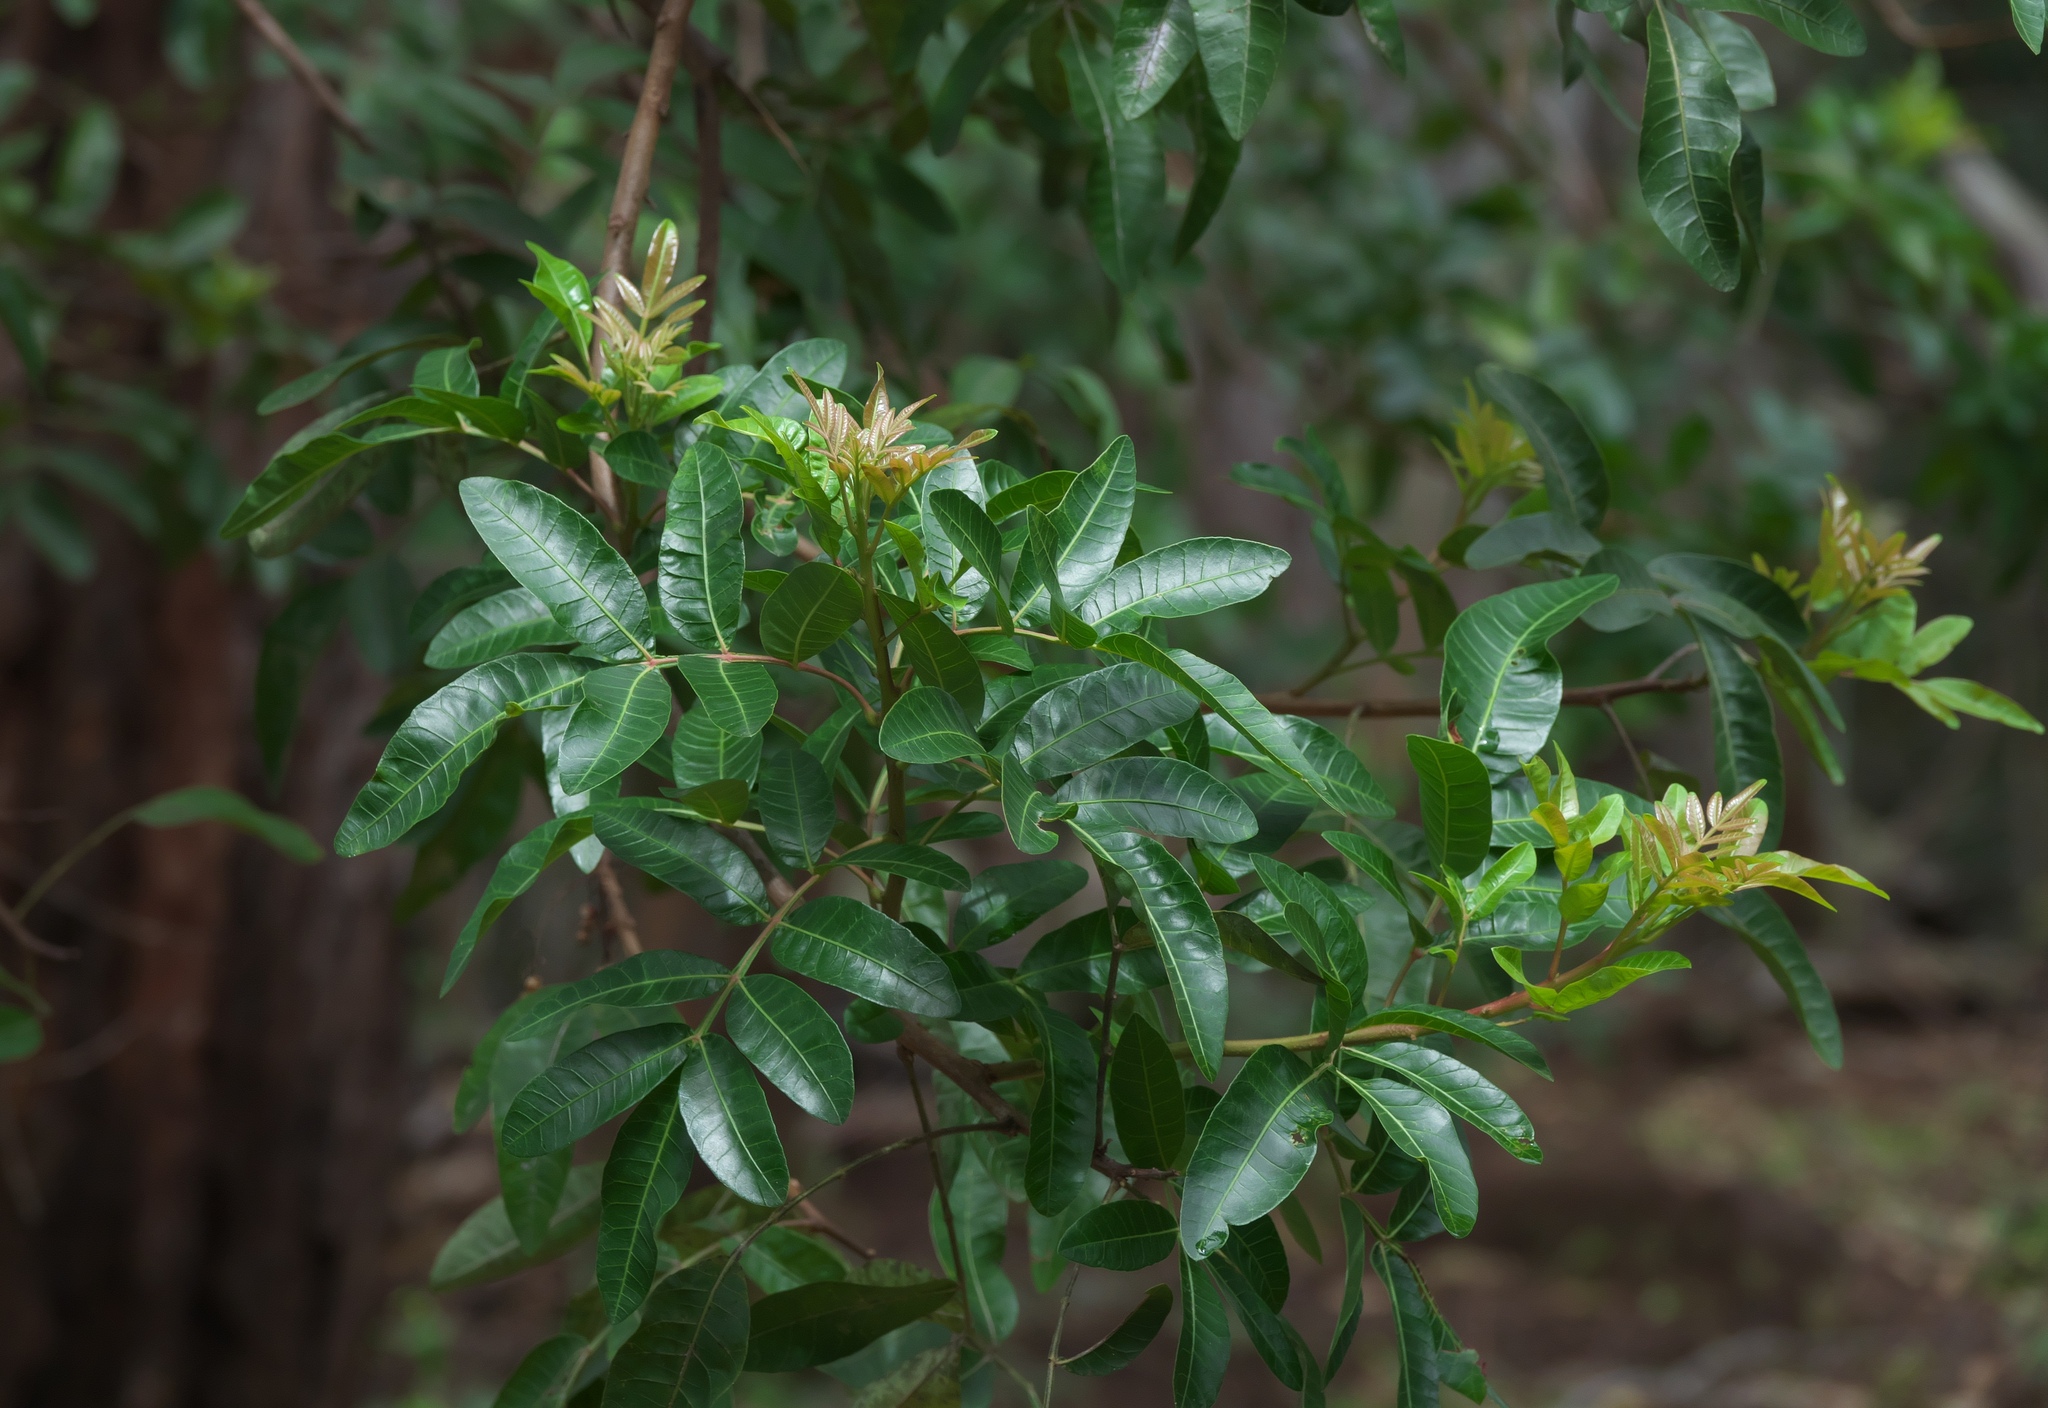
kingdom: Plantae
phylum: Tracheophyta
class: Magnoliopsida
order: Sapindales
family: Anacardiaceae
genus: Schinus
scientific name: Schinus terebinthifolia
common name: Brazilian peppertree
